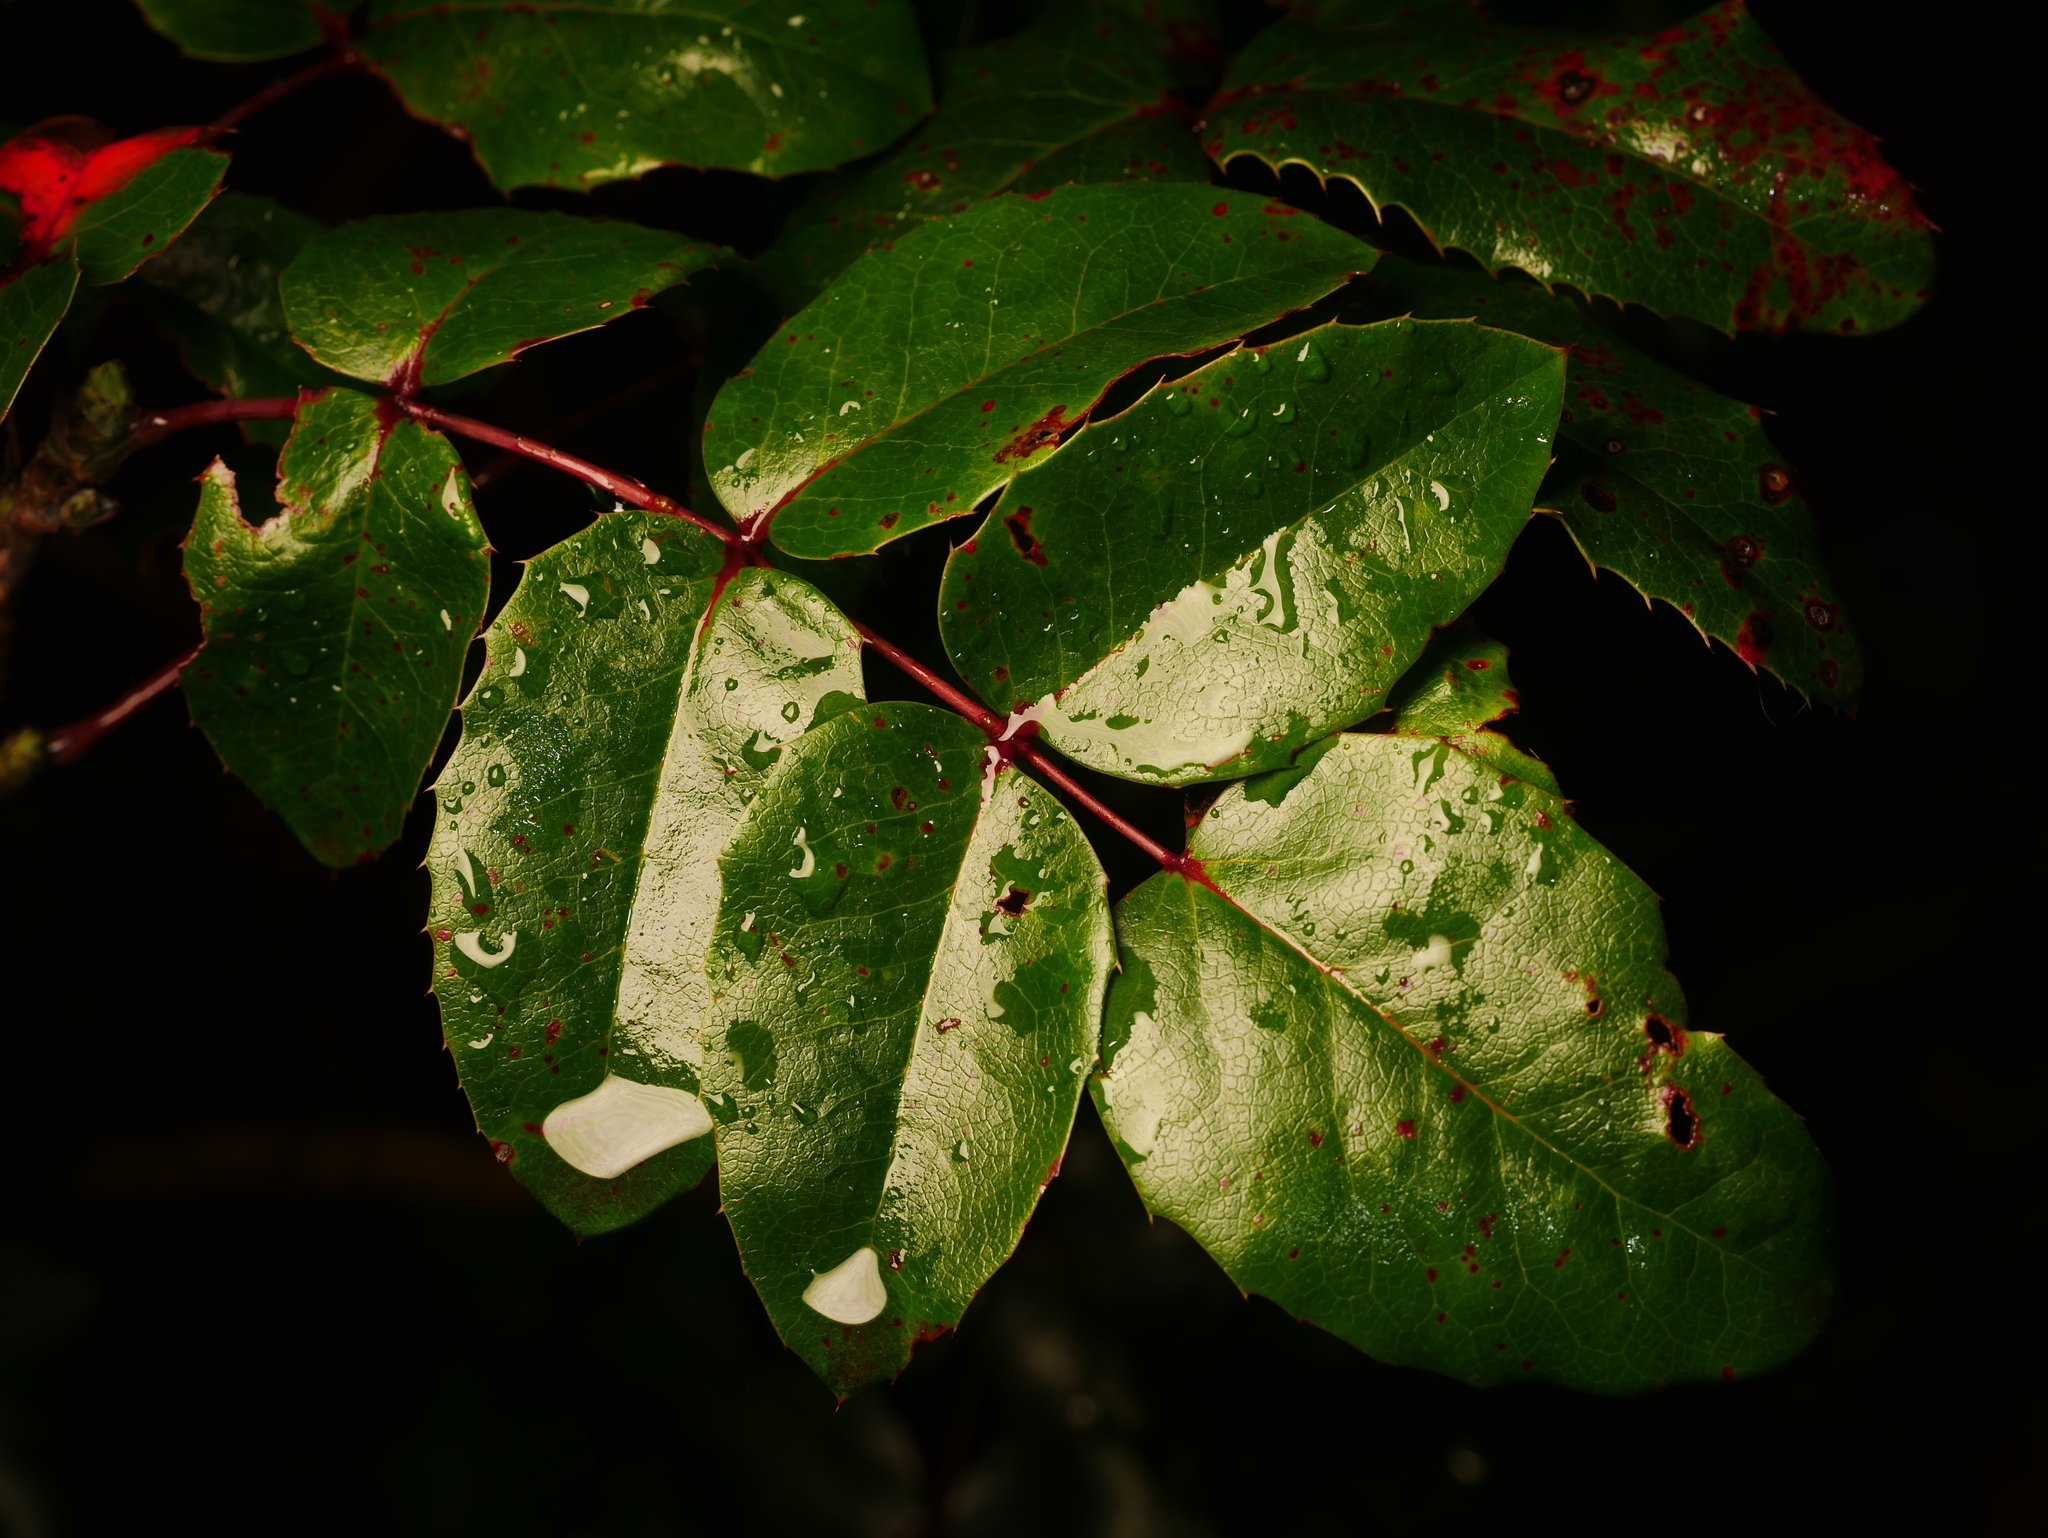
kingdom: Plantae
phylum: Tracheophyta
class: Magnoliopsida
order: Ranunculales
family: Berberidaceae
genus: Mahonia
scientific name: Mahonia aquifolium
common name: Oregon-grape
